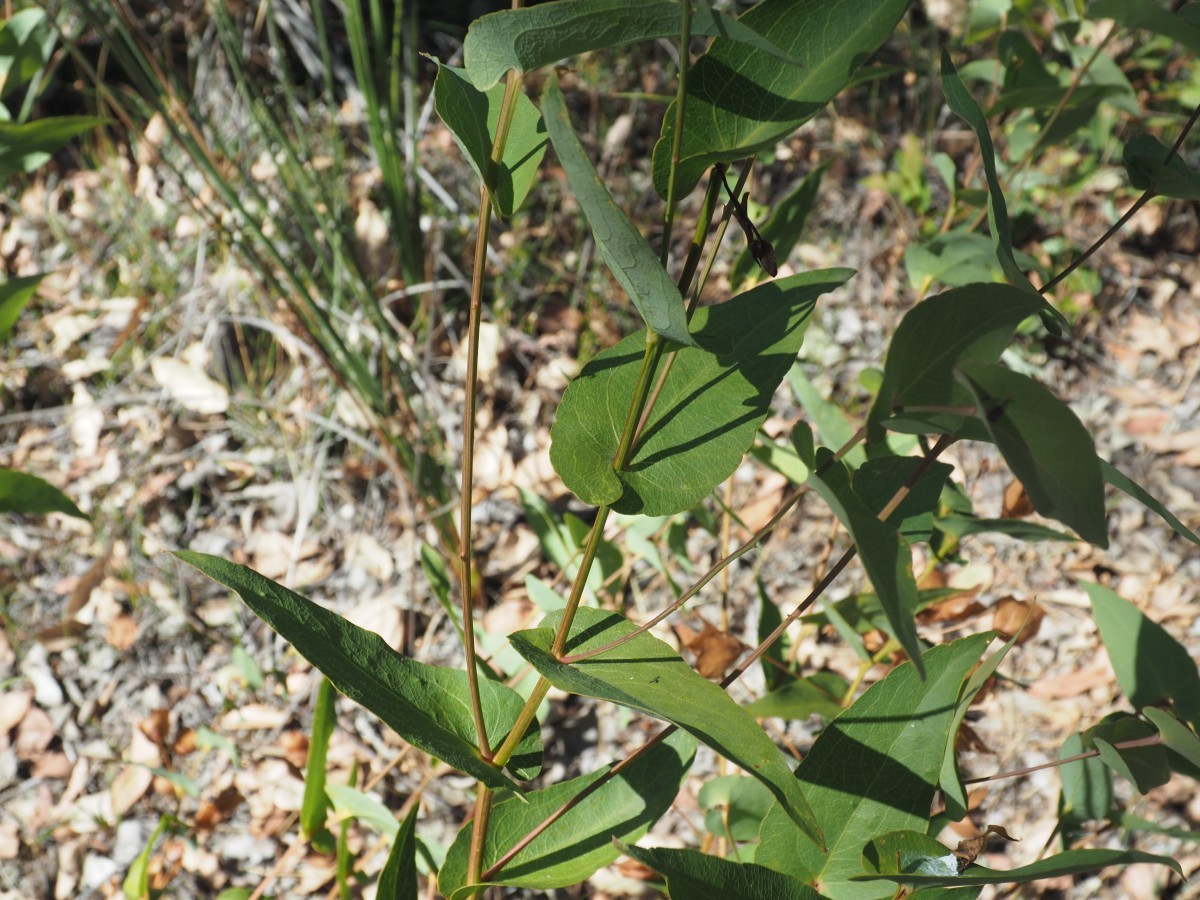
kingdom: Plantae
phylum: Tracheophyta
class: Magnoliopsida
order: Fabales
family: Fabaceae
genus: Daviesia
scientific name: Daviesia cordata
